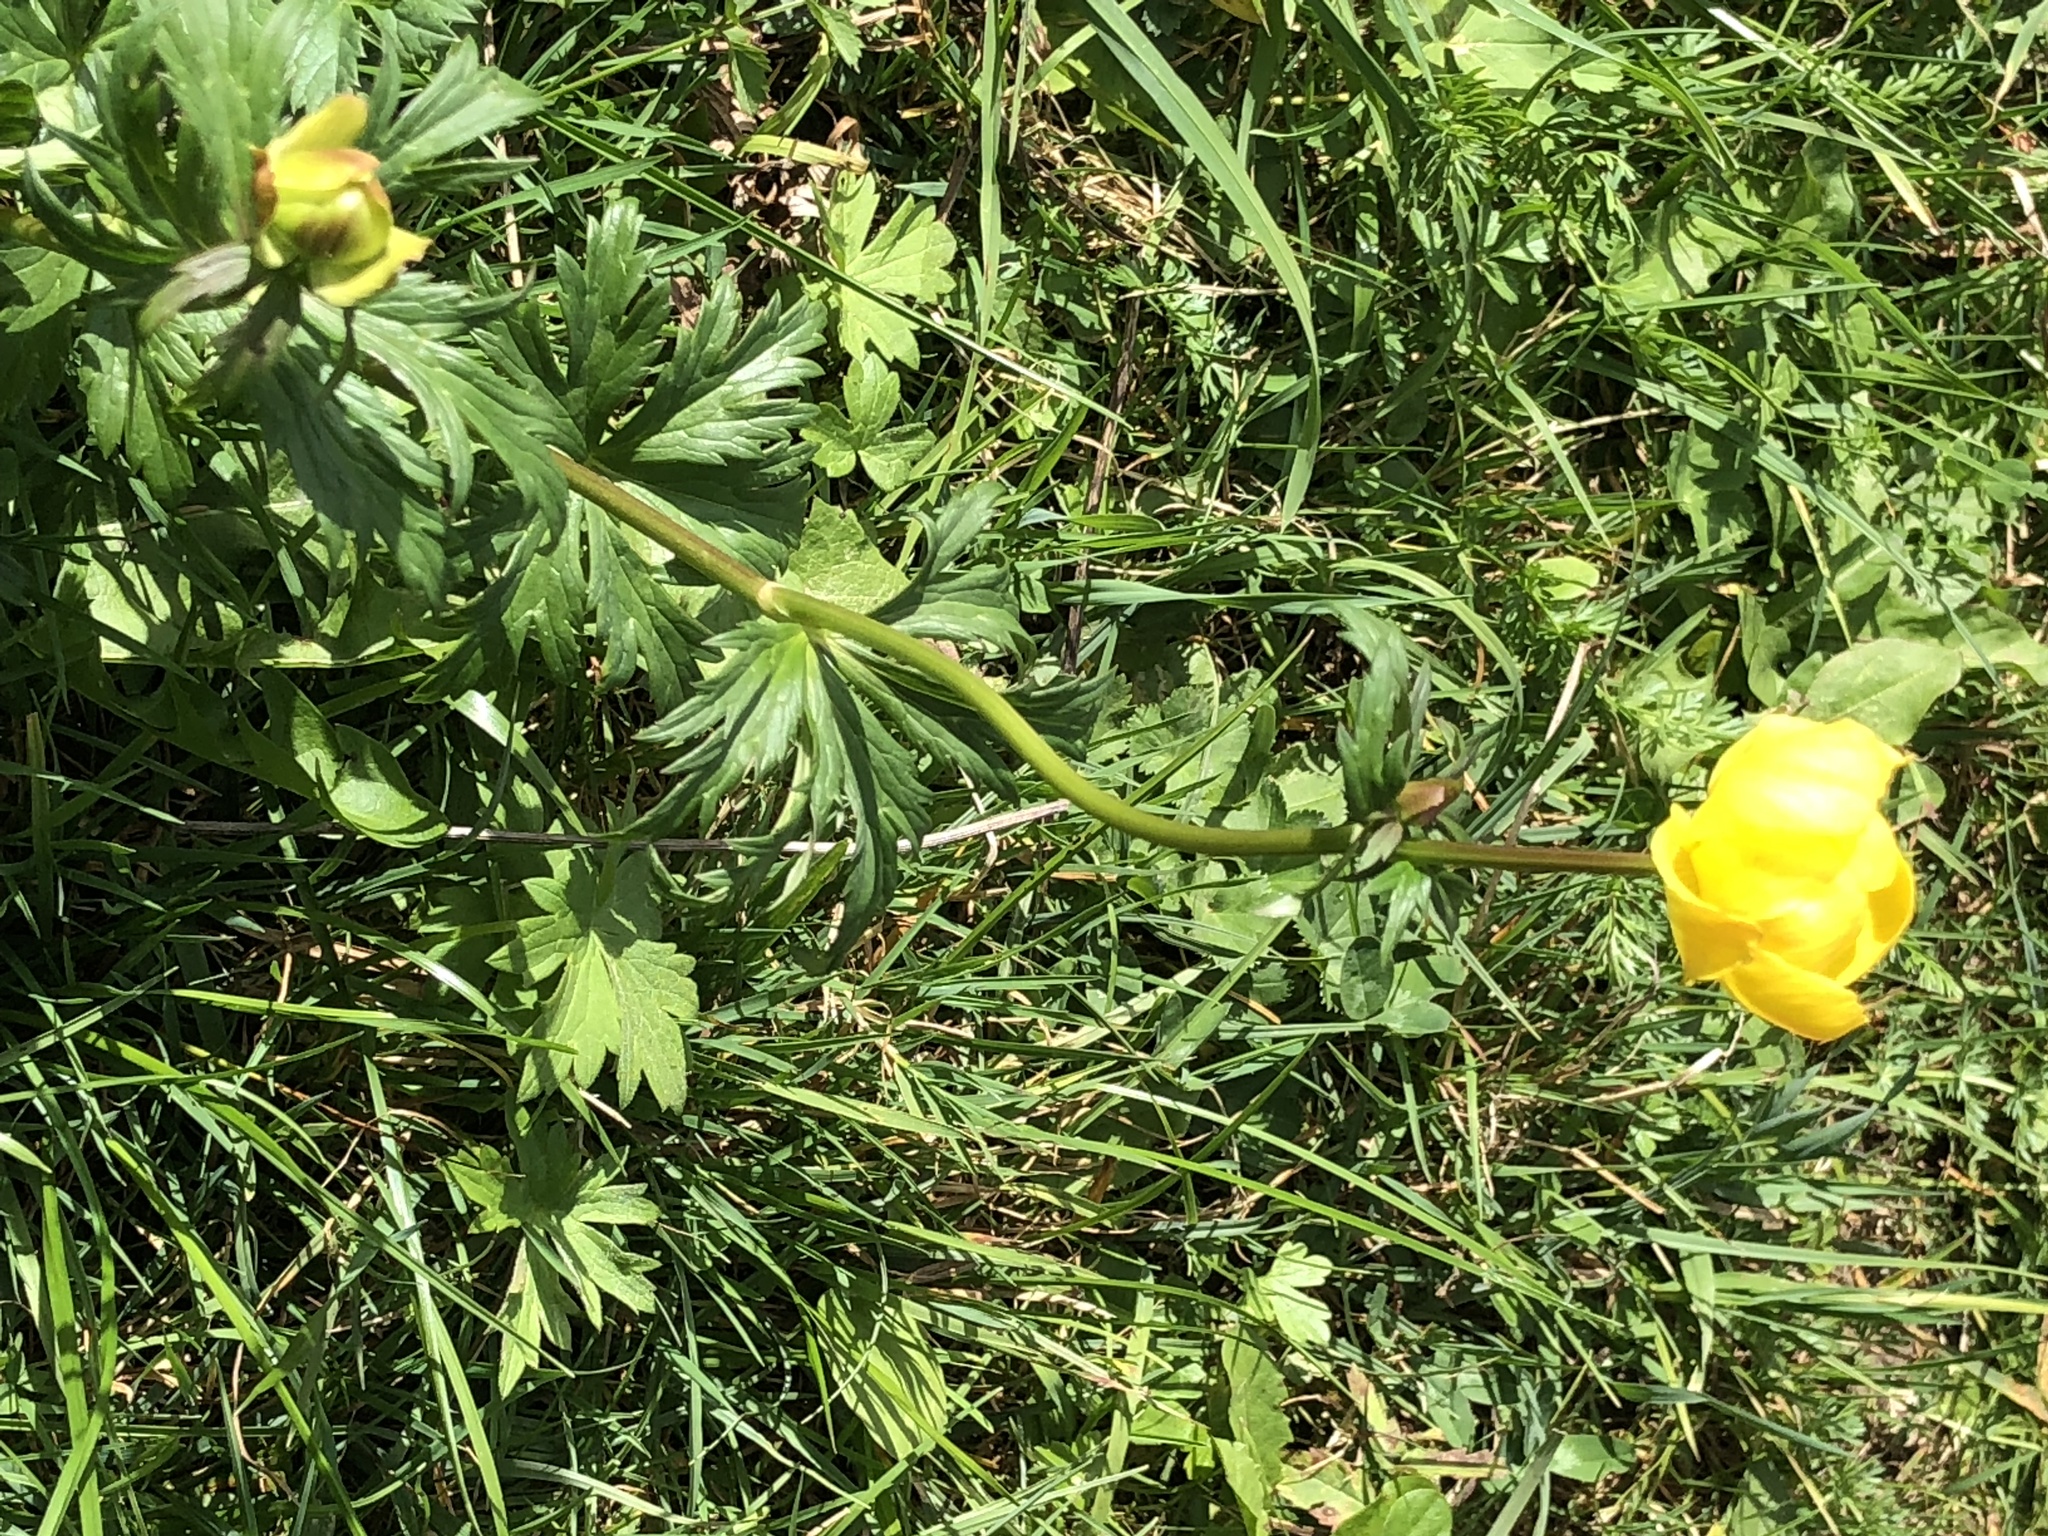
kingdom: Plantae
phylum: Tracheophyta
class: Magnoliopsida
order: Ranunculales
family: Ranunculaceae
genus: Trollius
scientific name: Trollius europaeus
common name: European globeflower
